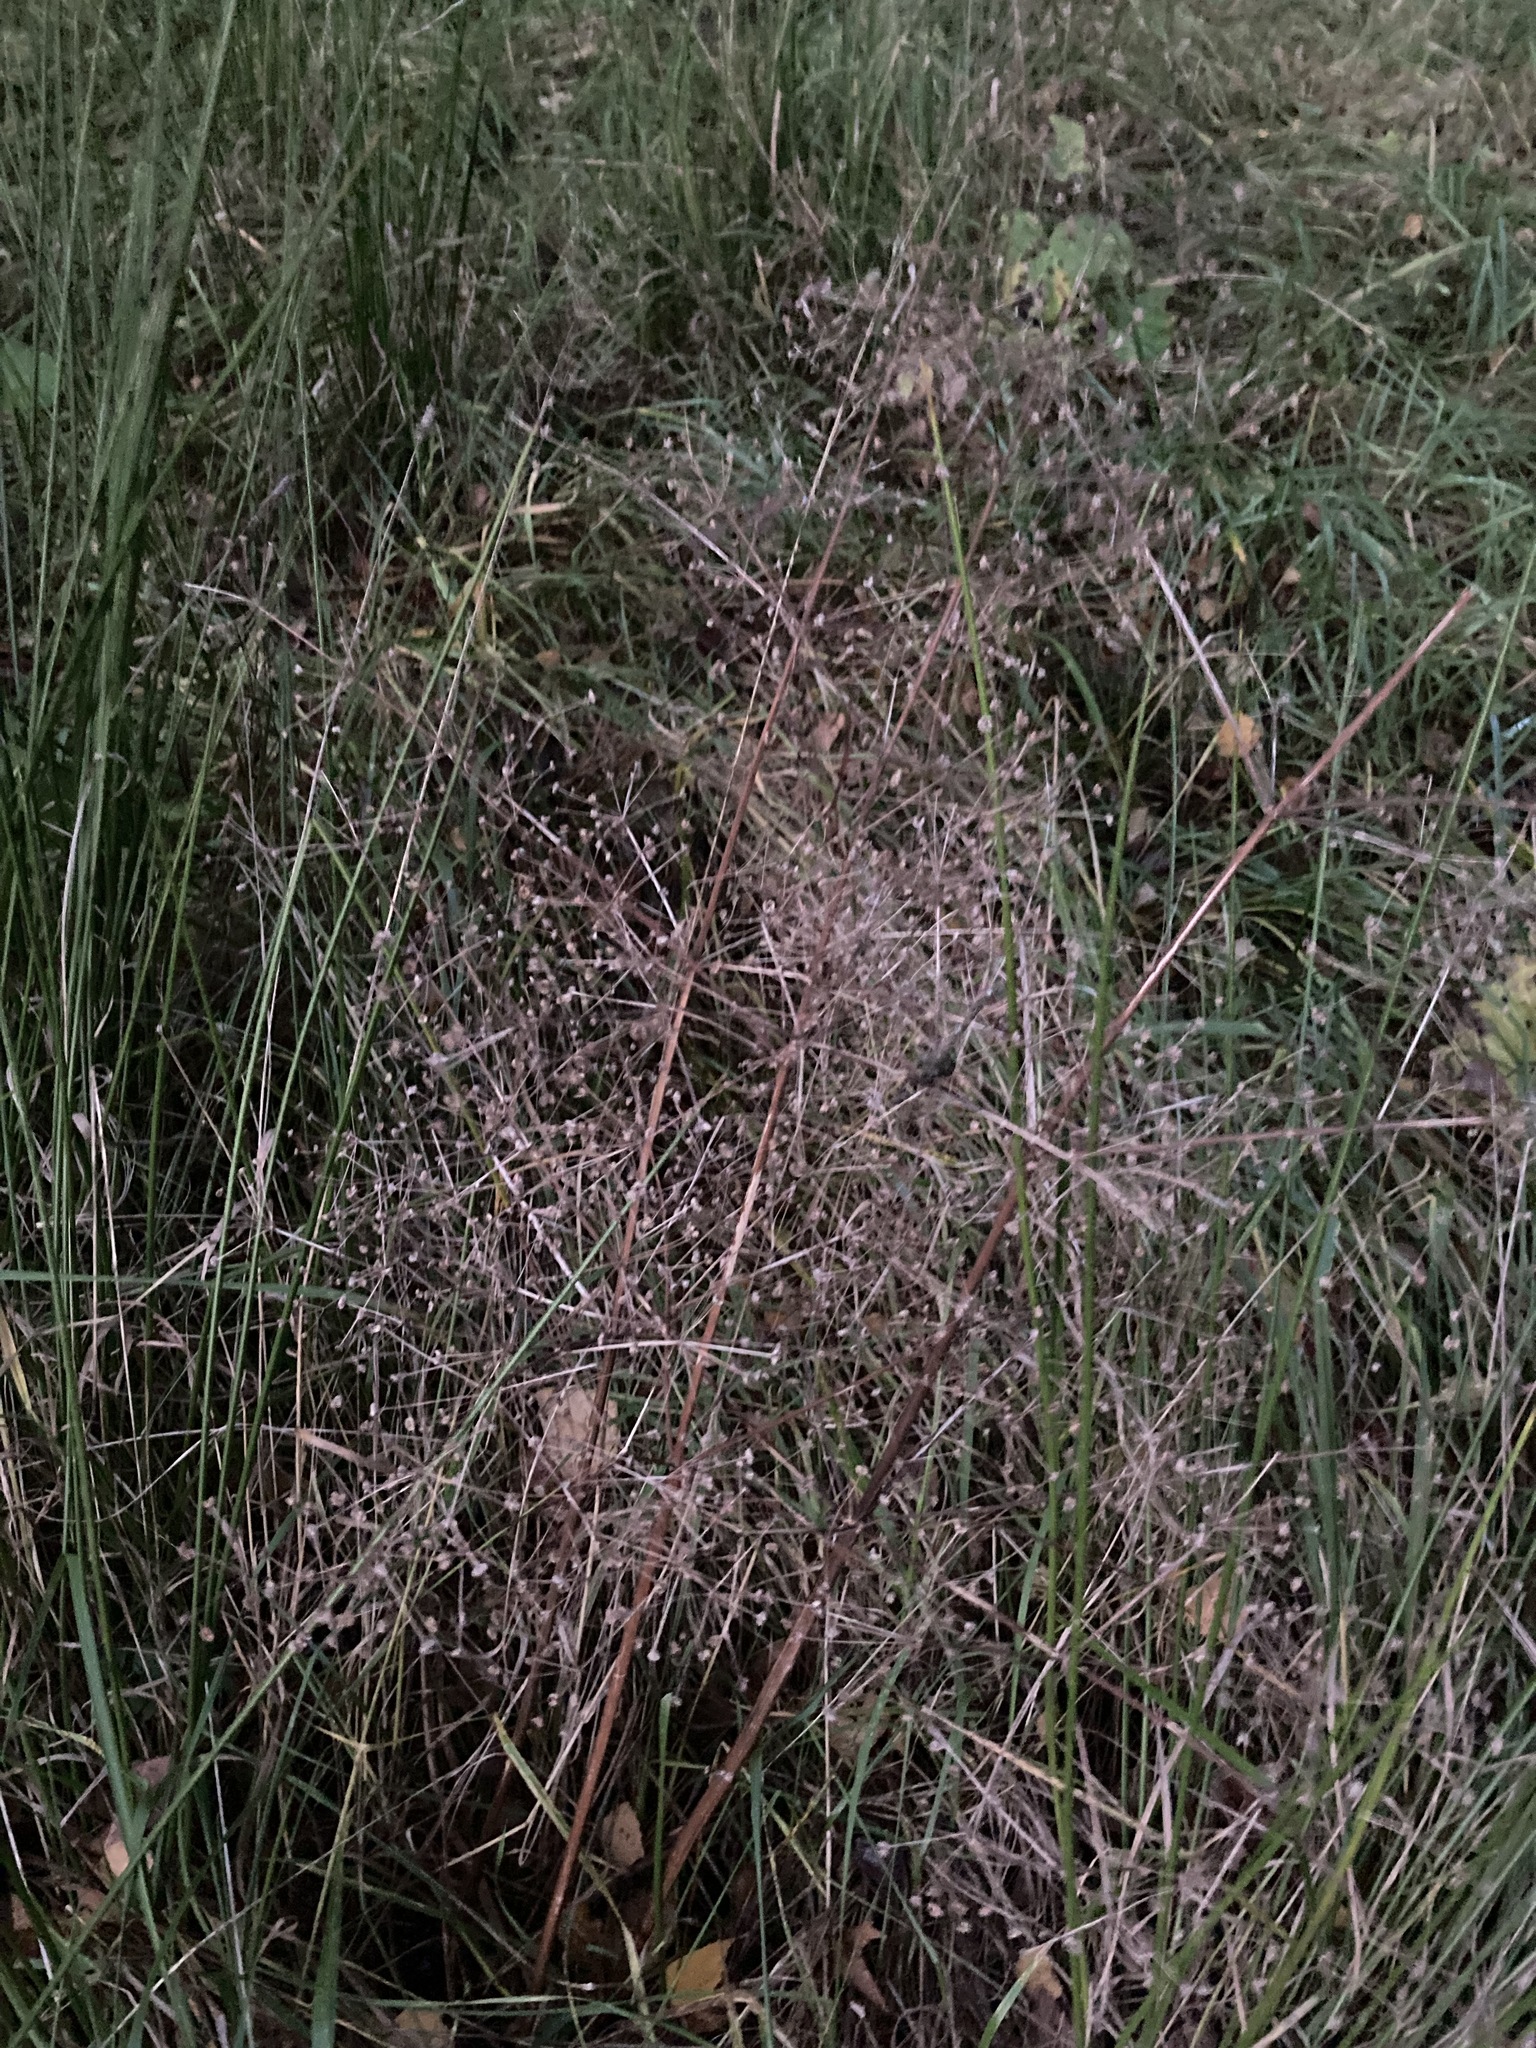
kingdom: Plantae
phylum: Tracheophyta
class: Liliopsida
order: Alismatales
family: Alismataceae
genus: Alisma
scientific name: Alisma plantago-aquatica
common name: Water-plantain
